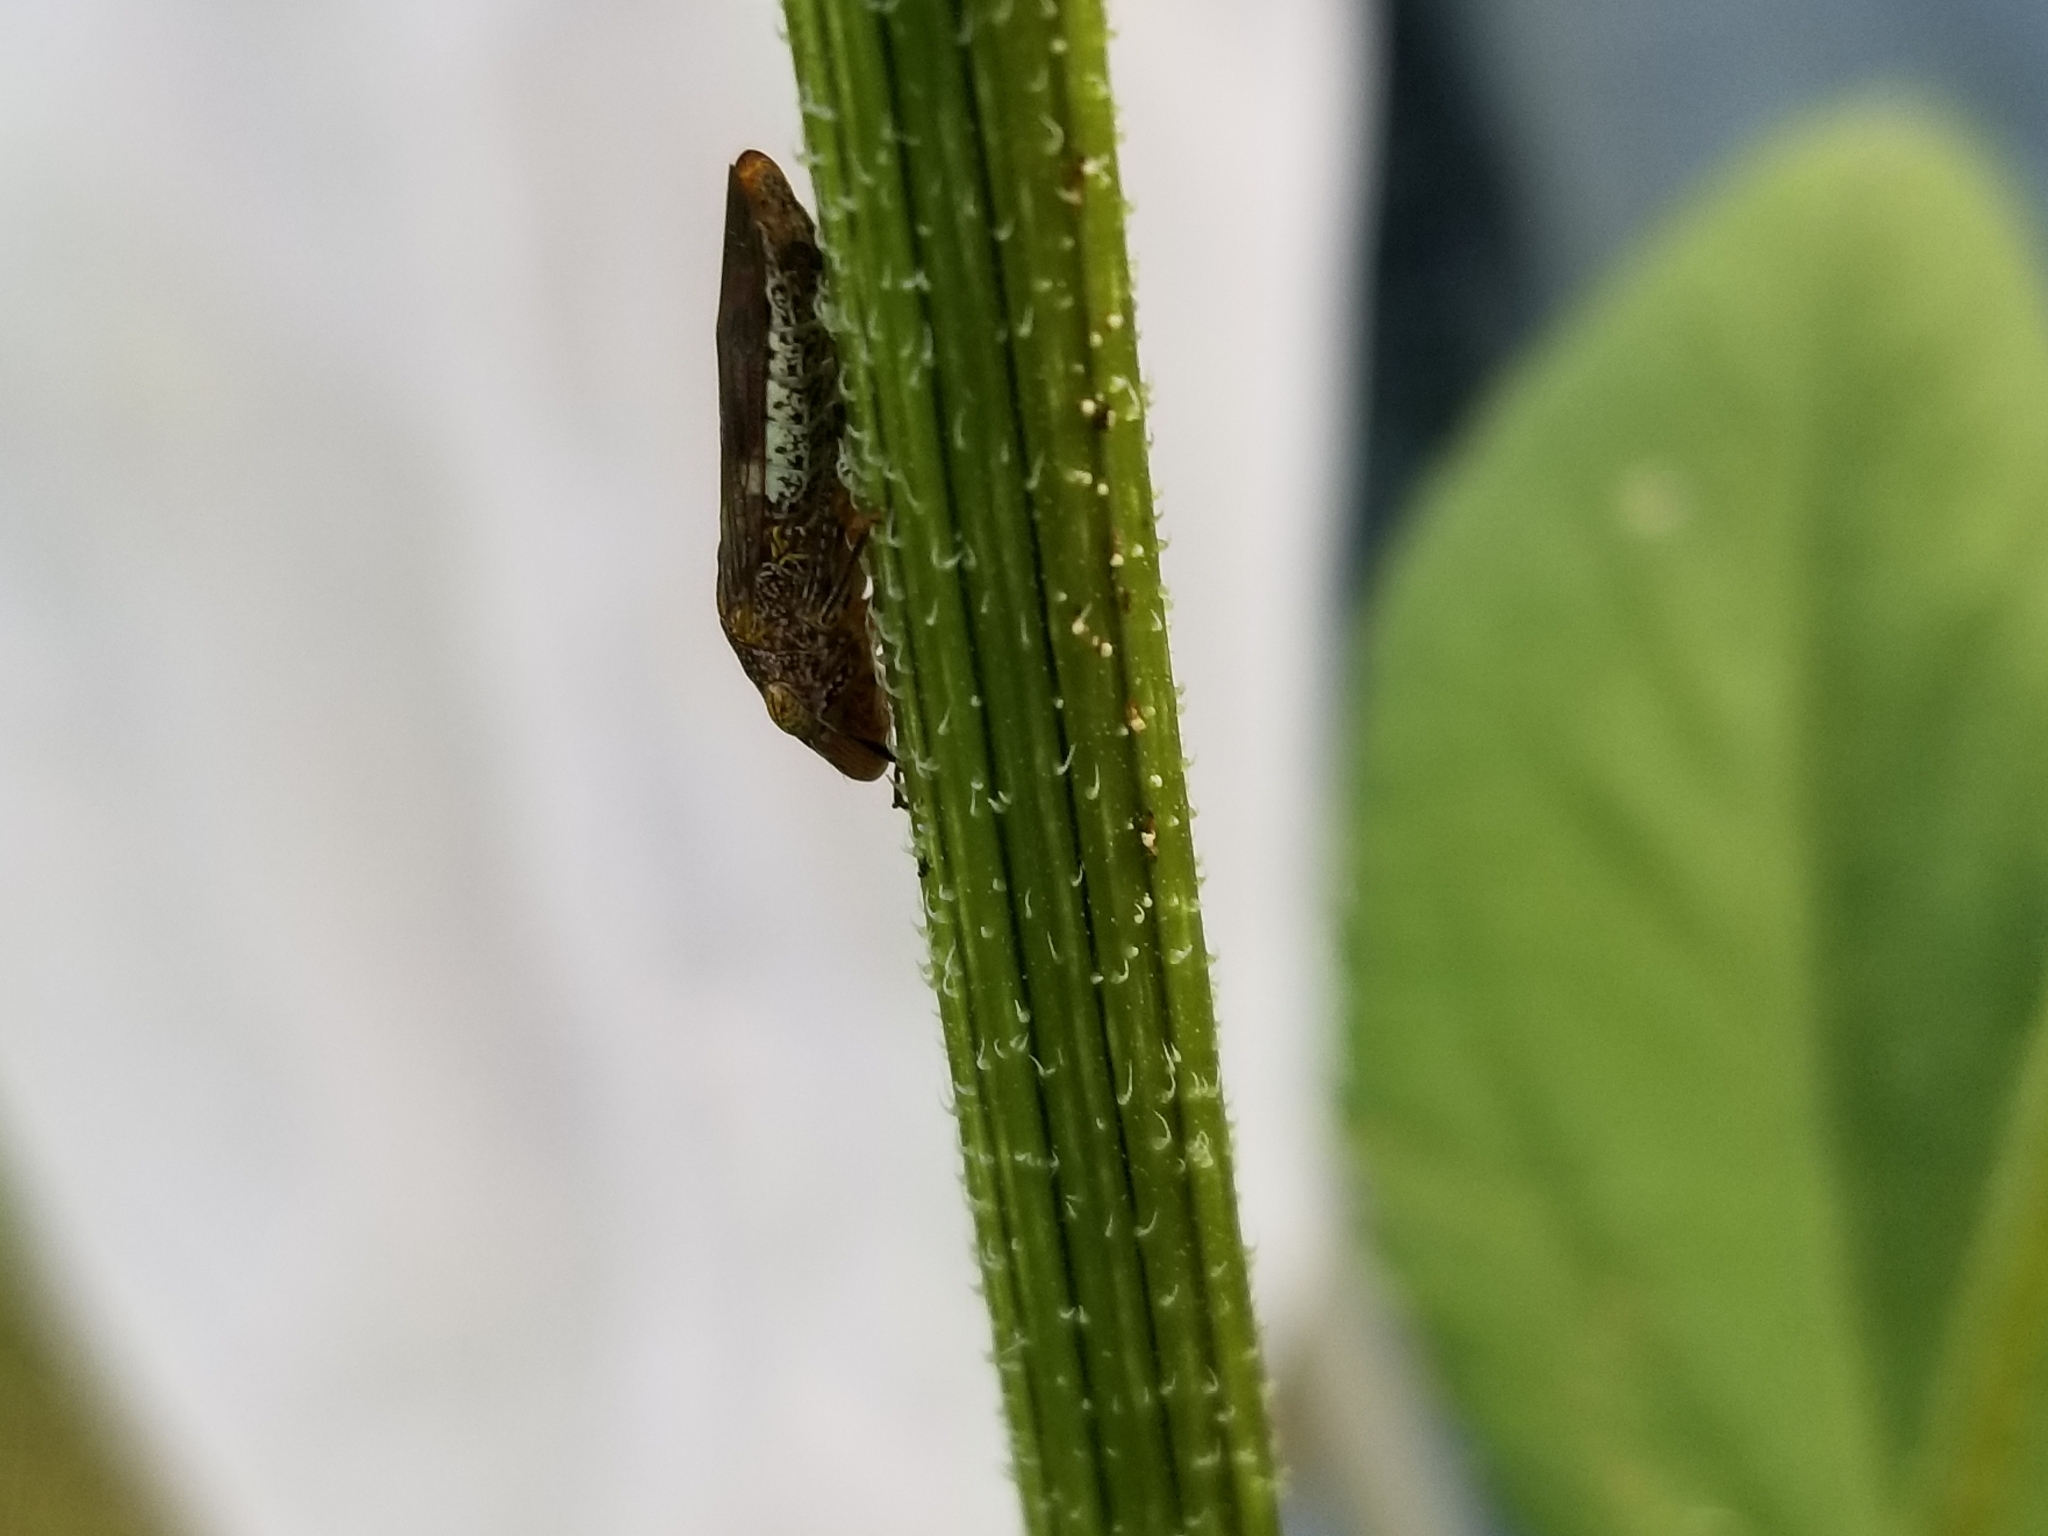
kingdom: Animalia
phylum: Arthropoda
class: Insecta
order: Hemiptera
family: Cicadellidae
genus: Homalodisca
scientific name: Homalodisca vitripennis
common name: Glassy-winged sharpshooter
